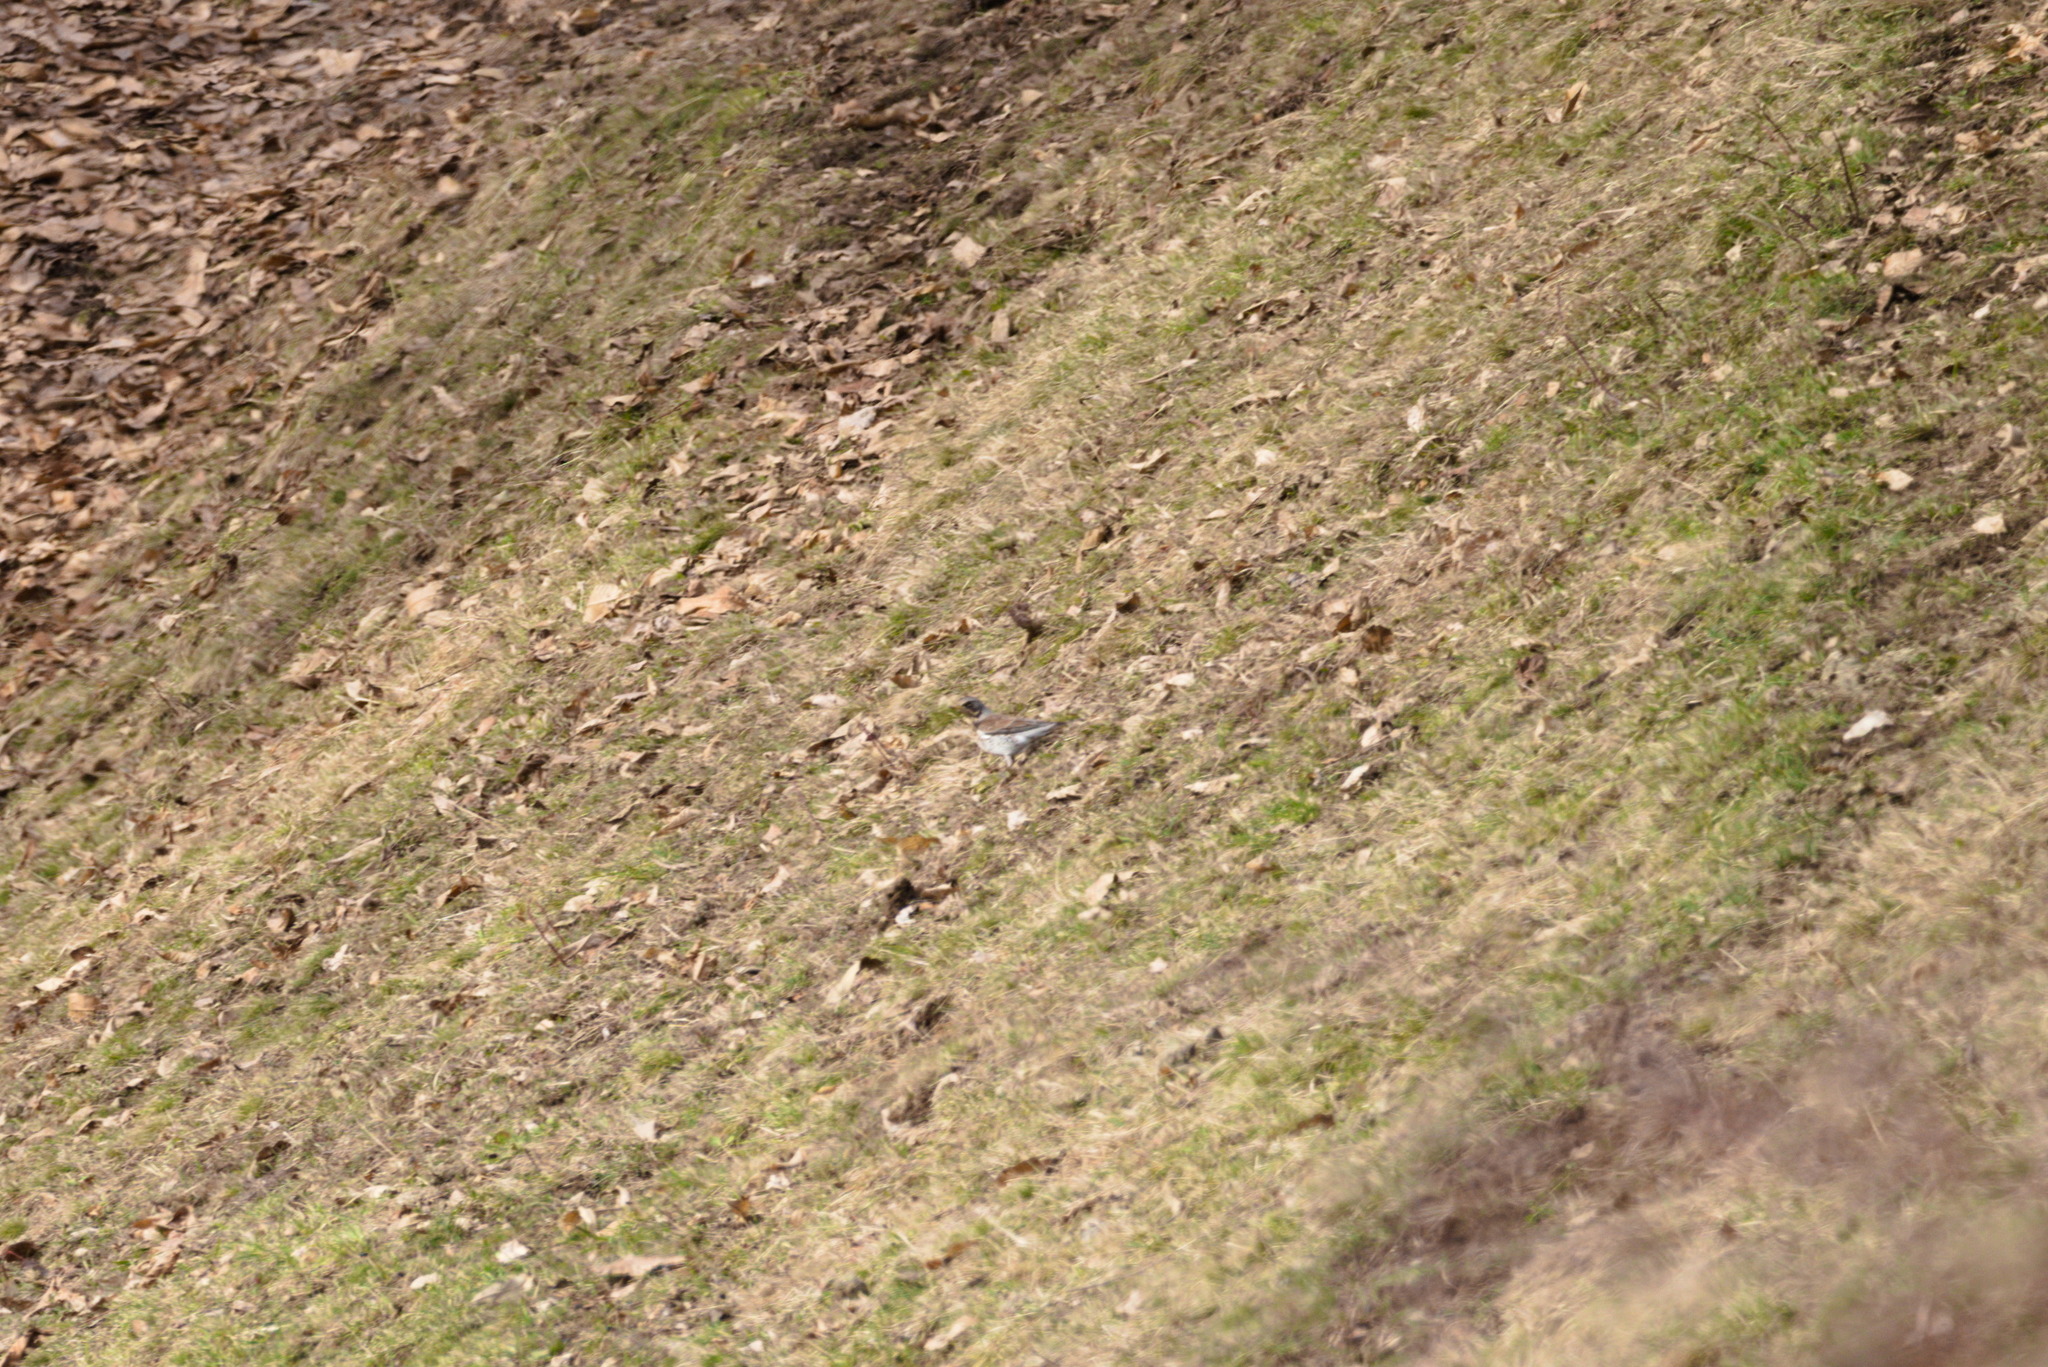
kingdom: Animalia
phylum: Chordata
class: Aves
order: Passeriformes
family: Turdidae
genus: Turdus
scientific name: Turdus pilaris
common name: Fieldfare
